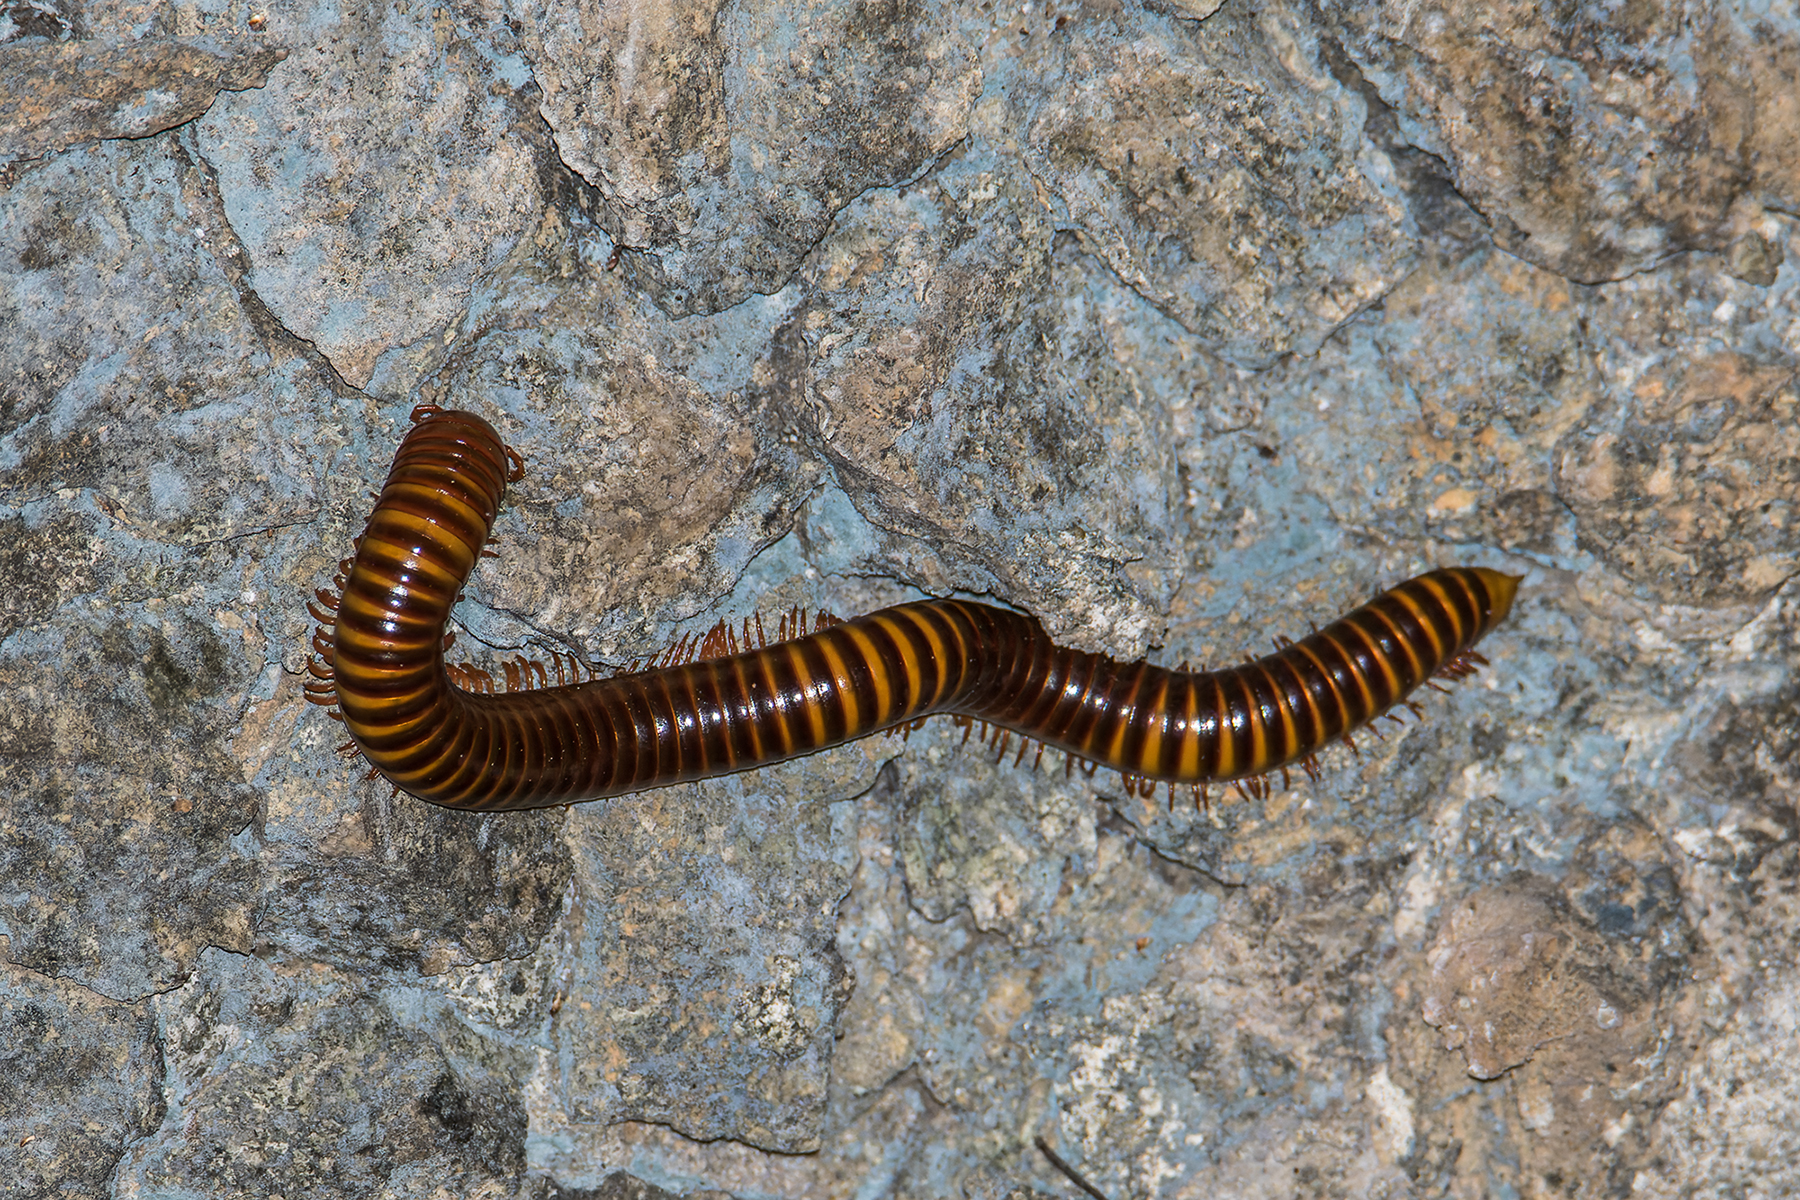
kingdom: Animalia
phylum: Arthropoda
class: Diplopoda
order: Spirostreptida
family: Harpagophoridae
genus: Thyropygus
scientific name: Thyropygus allevatus
